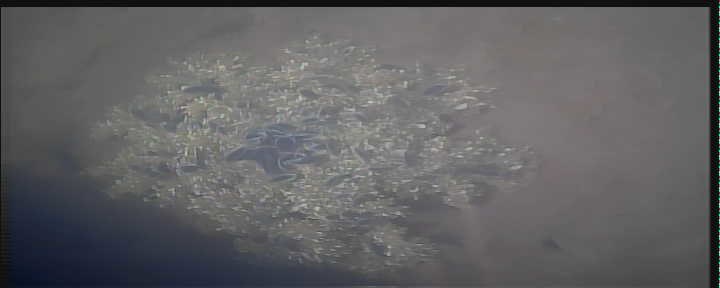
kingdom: Animalia
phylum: Cnidaria
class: Scyphozoa
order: Rhizostomeae
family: Cassiopeidae
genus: Cassiopea
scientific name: Cassiopea andromeda
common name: Upside-down jellyfish
